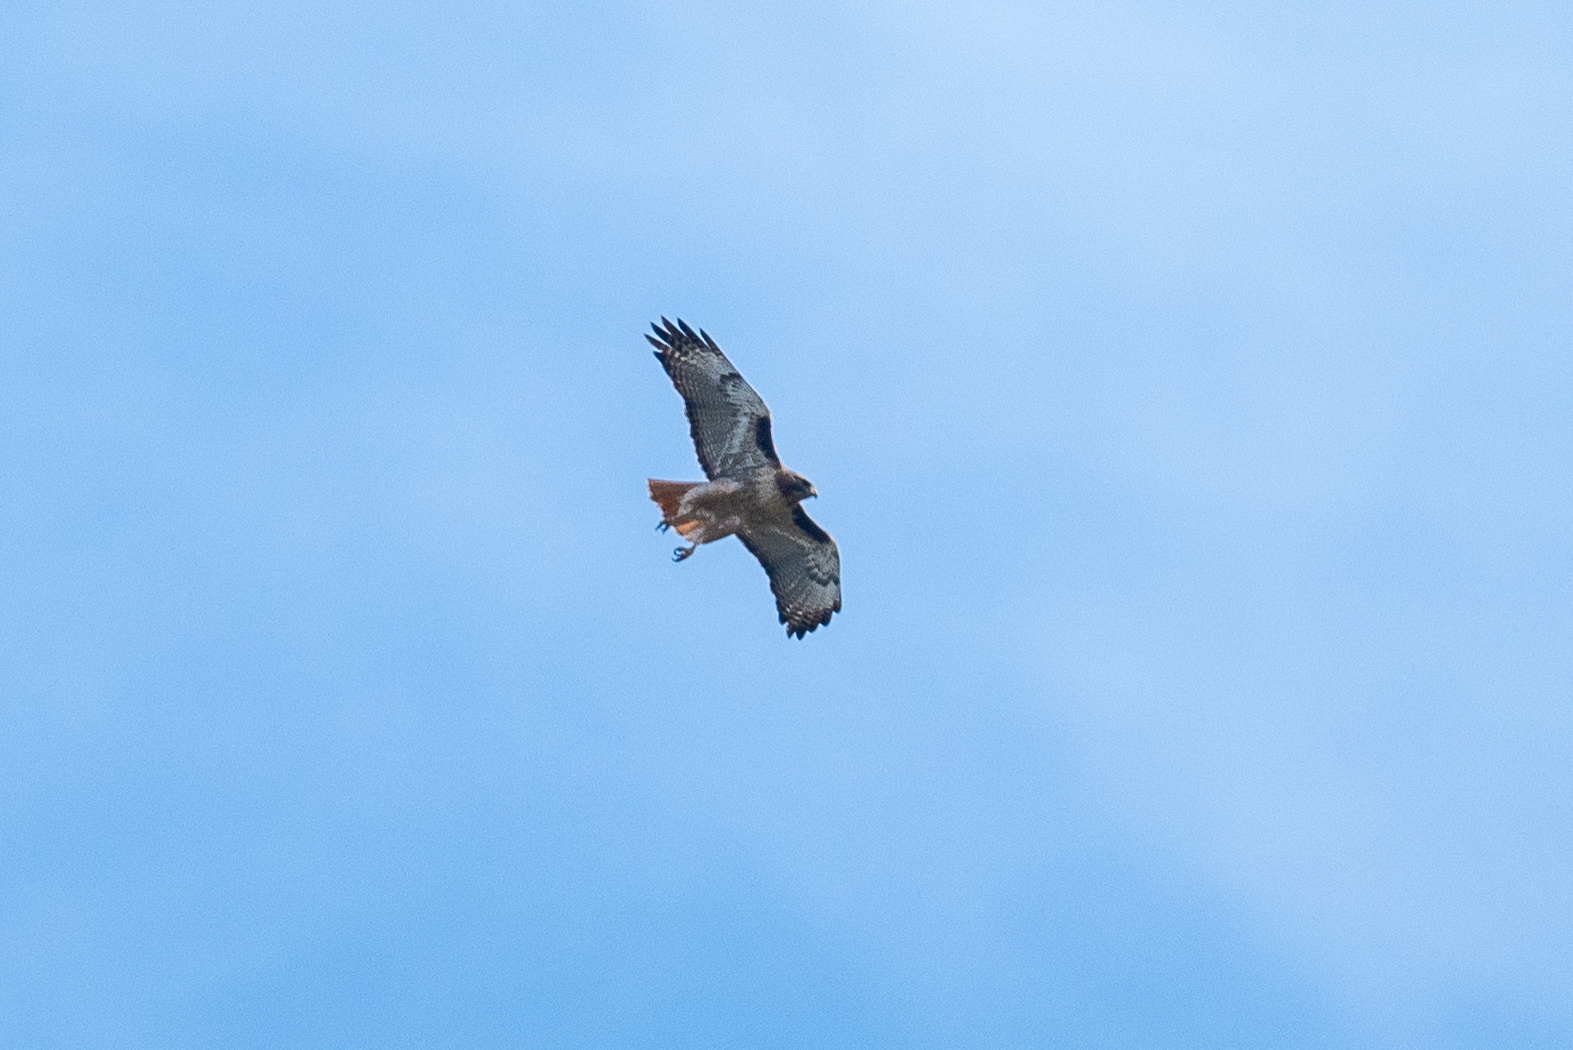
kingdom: Animalia
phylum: Chordata
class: Aves
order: Accipitriformes
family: Accipitridae
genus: Buteo
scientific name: Buteo jamaicensis
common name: Red-tailed hawk
